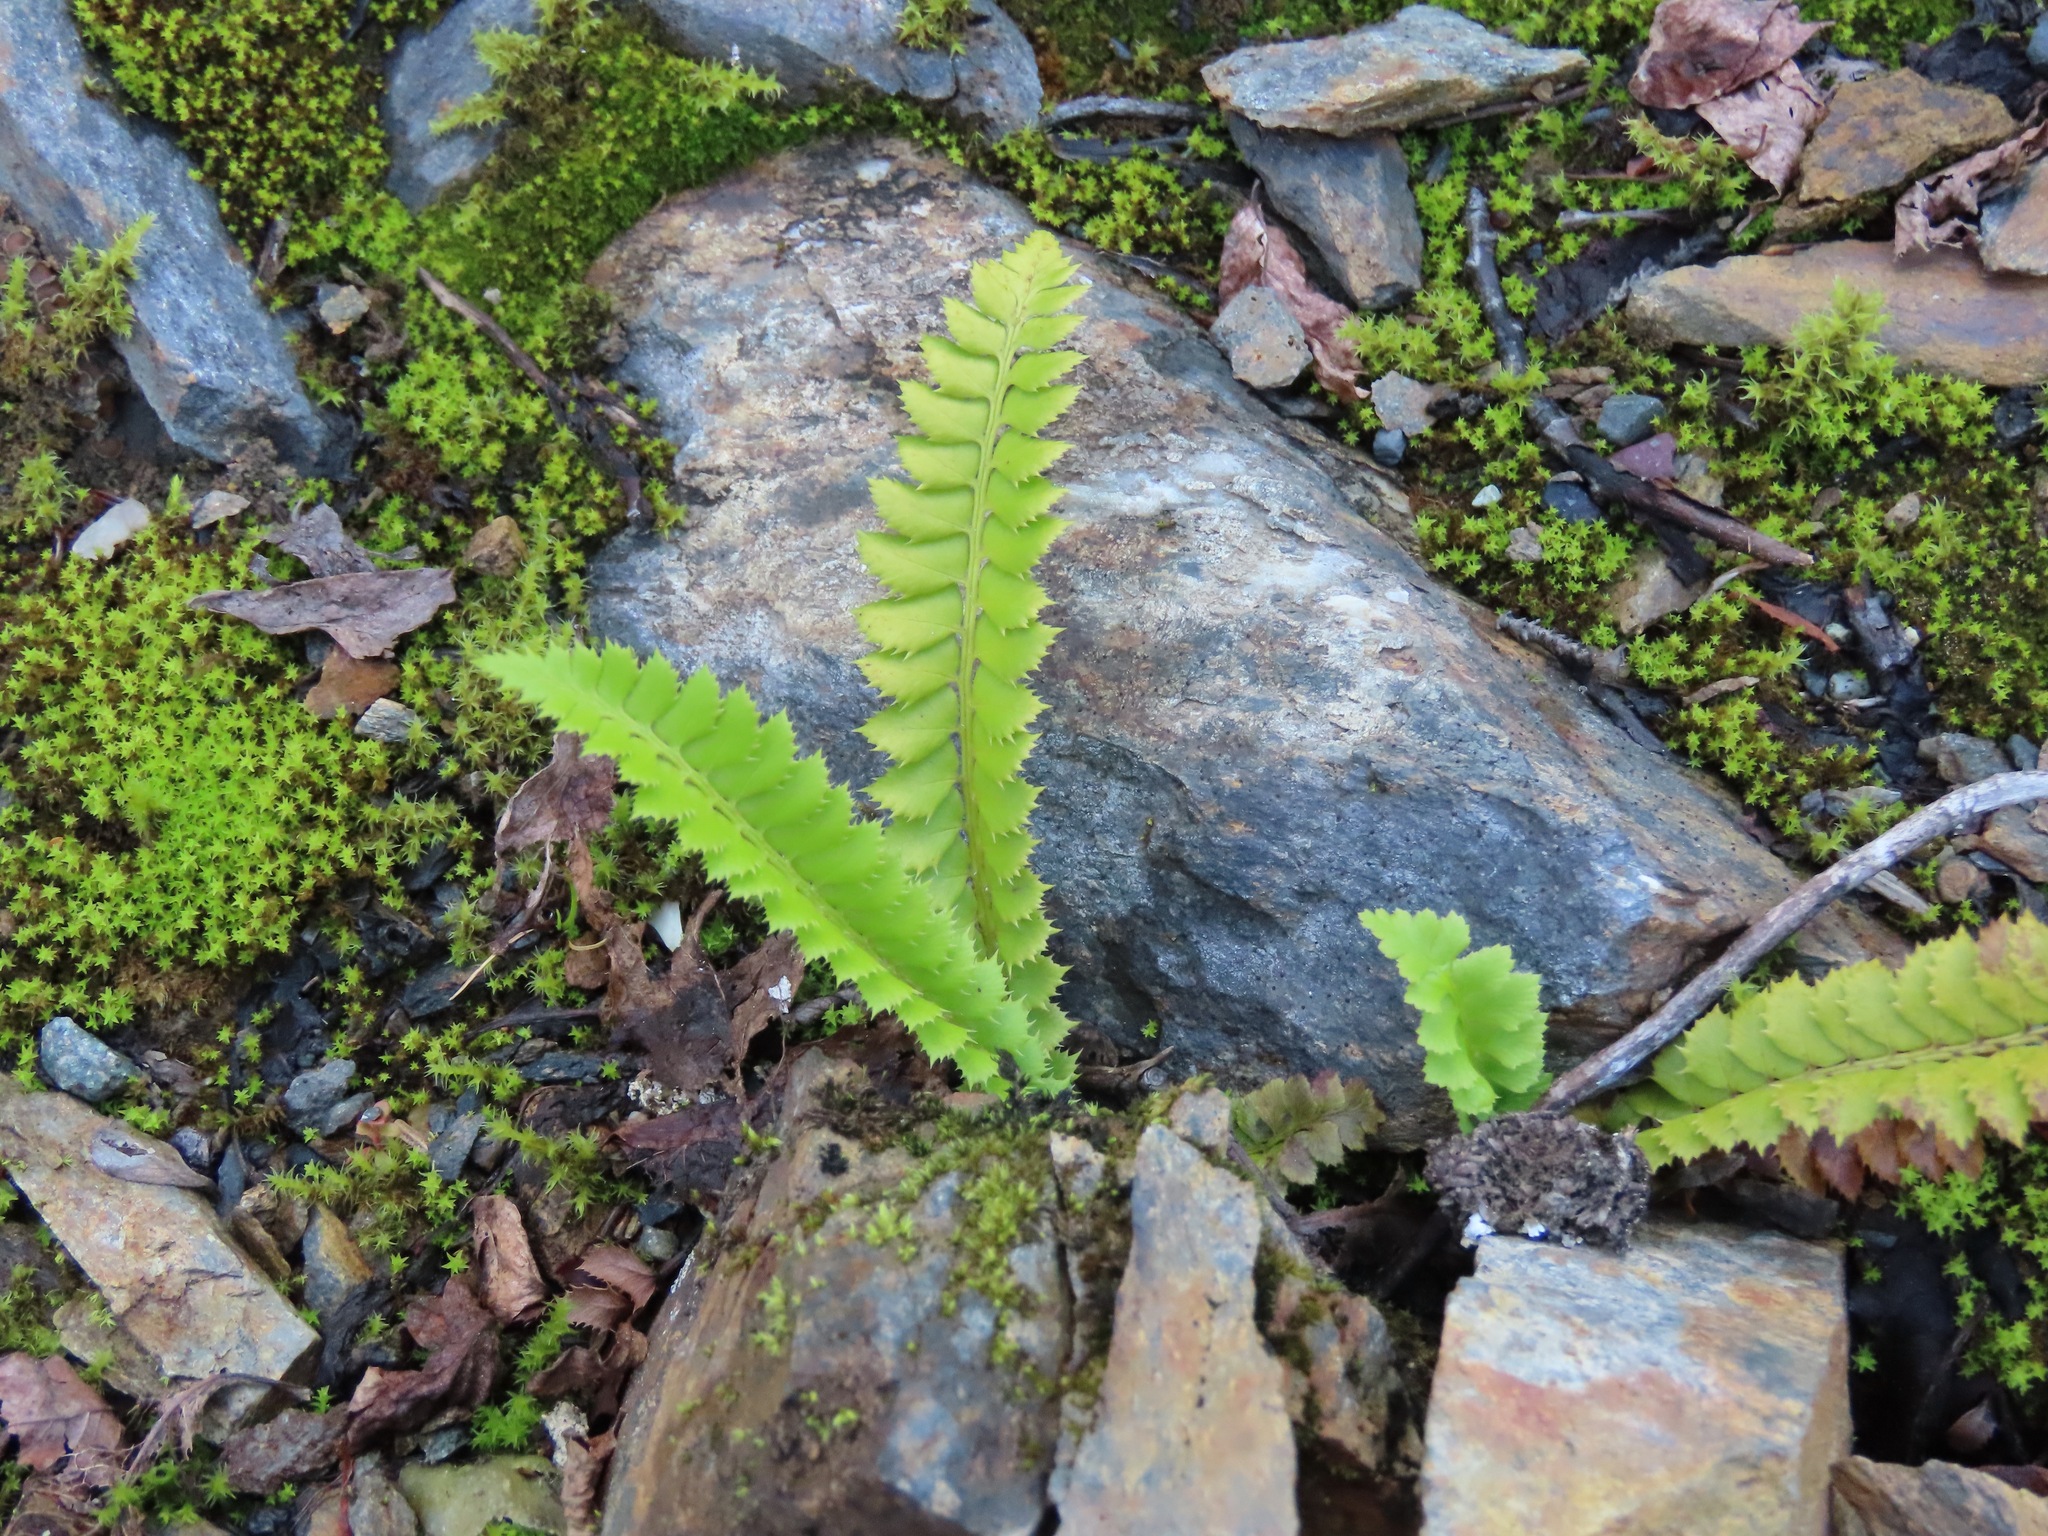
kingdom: Plantae
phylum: Tracheophyta
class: Polypodiopsida
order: Polypodiales
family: Dryopteridaceae
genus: Polystichum
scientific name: Polystichum lonchitis
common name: Holly fern
